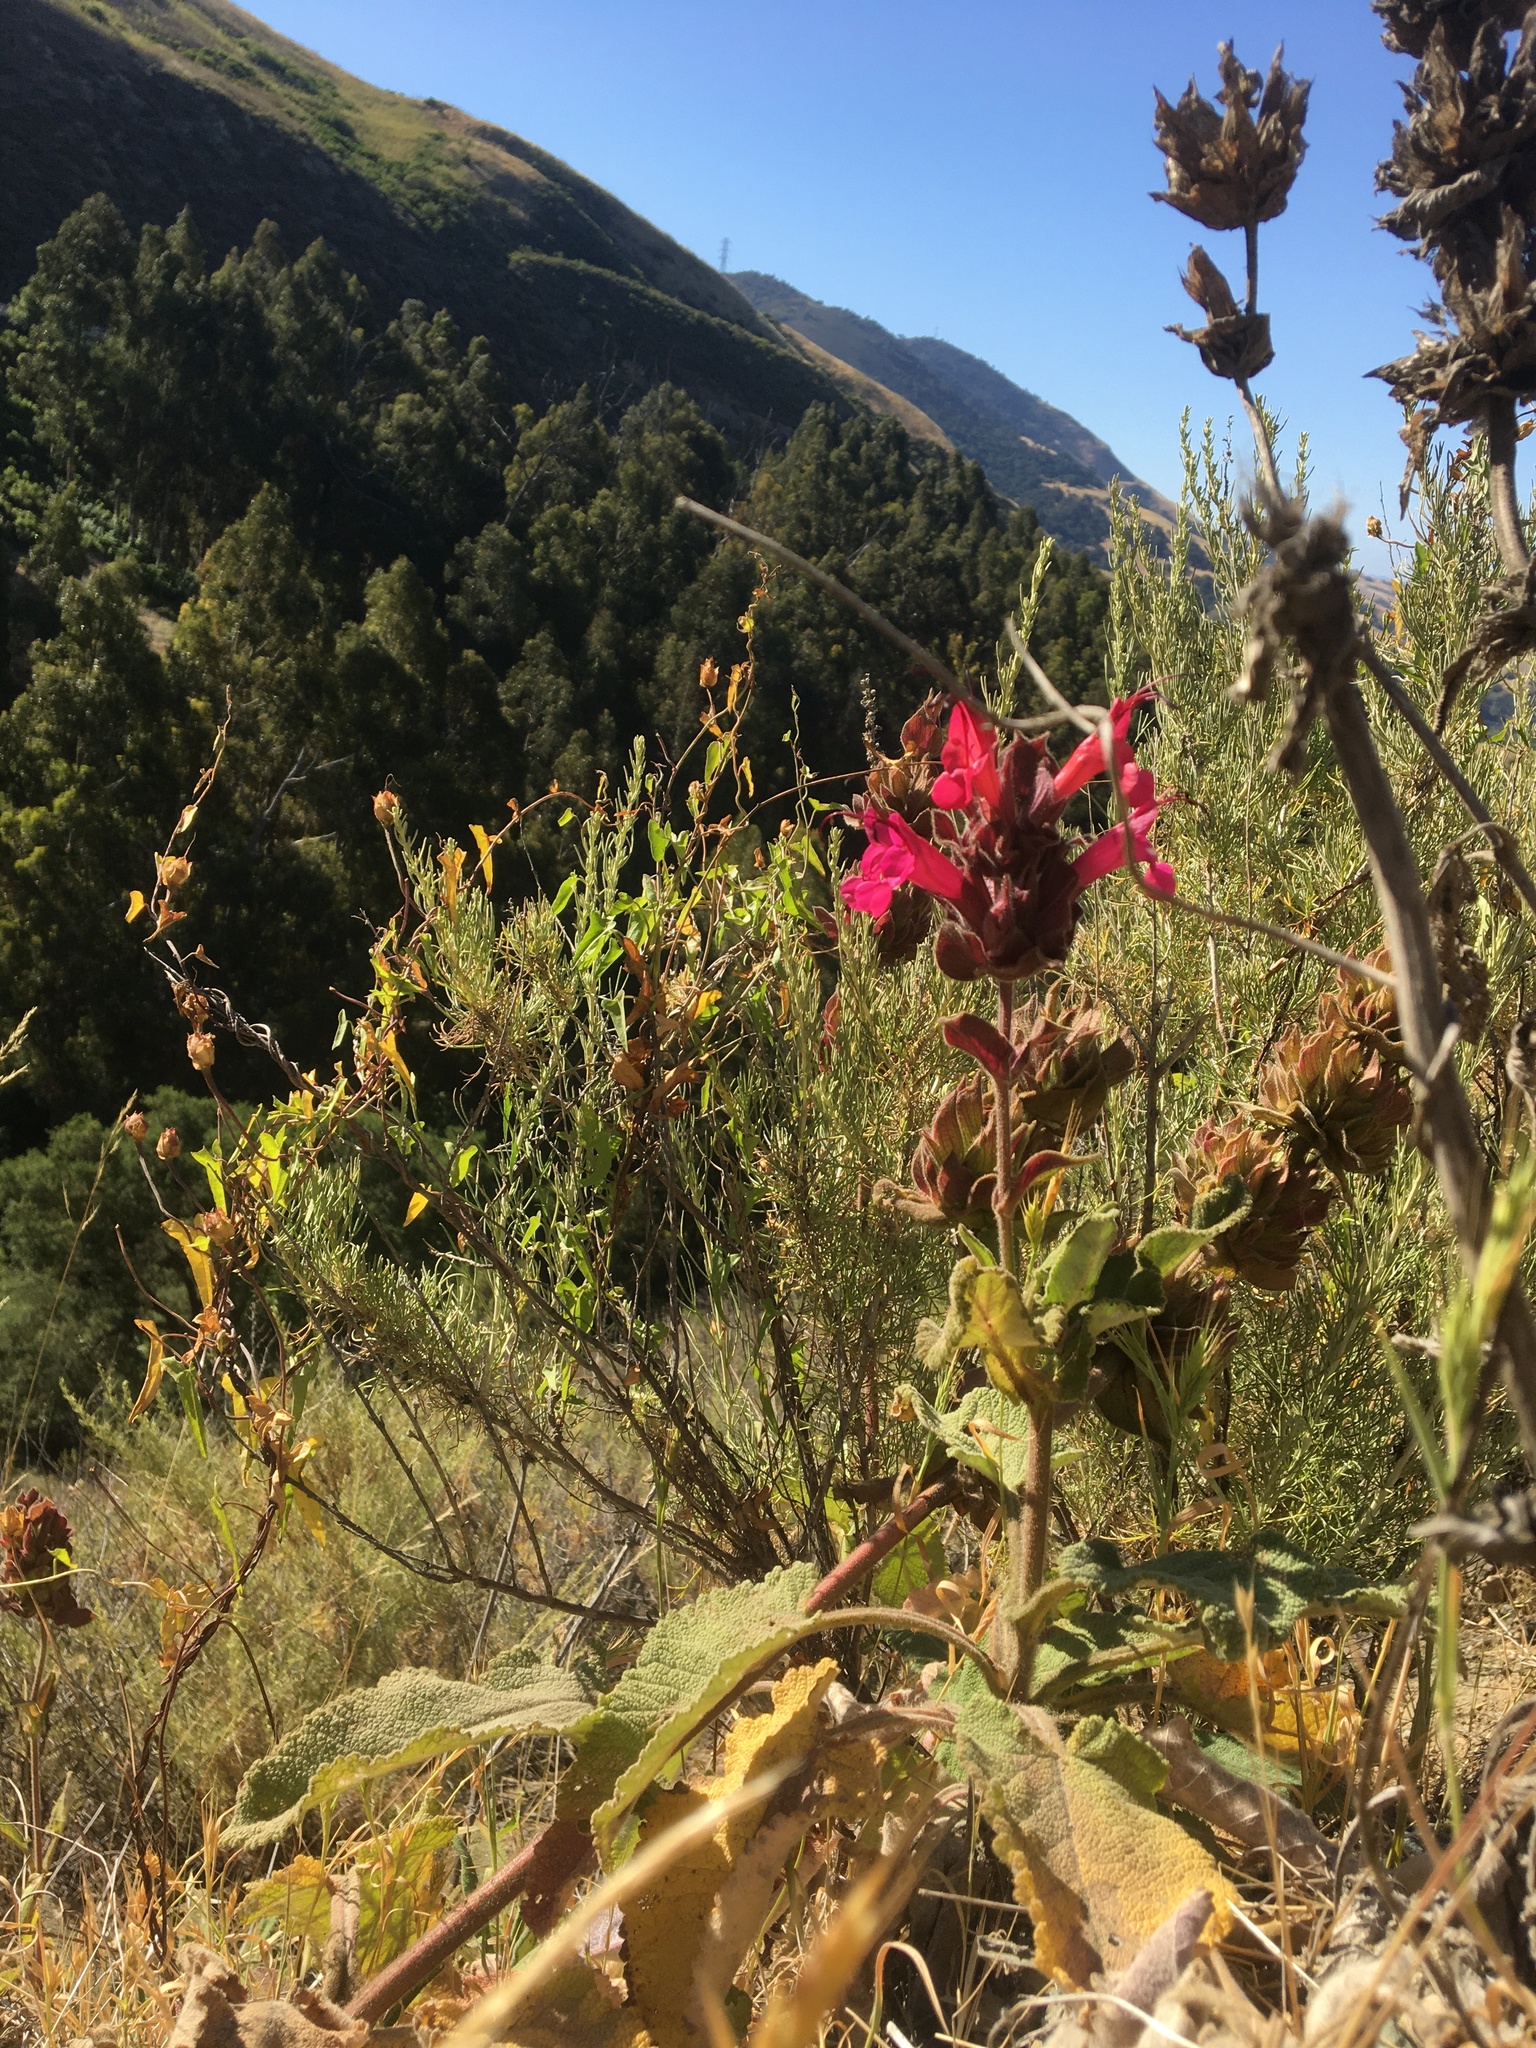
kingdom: Plantae
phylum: Tracheophyta
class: Magnoliopsida
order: Lamiales
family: Lamiaceae
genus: Salvia
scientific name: Salvia spathacea
